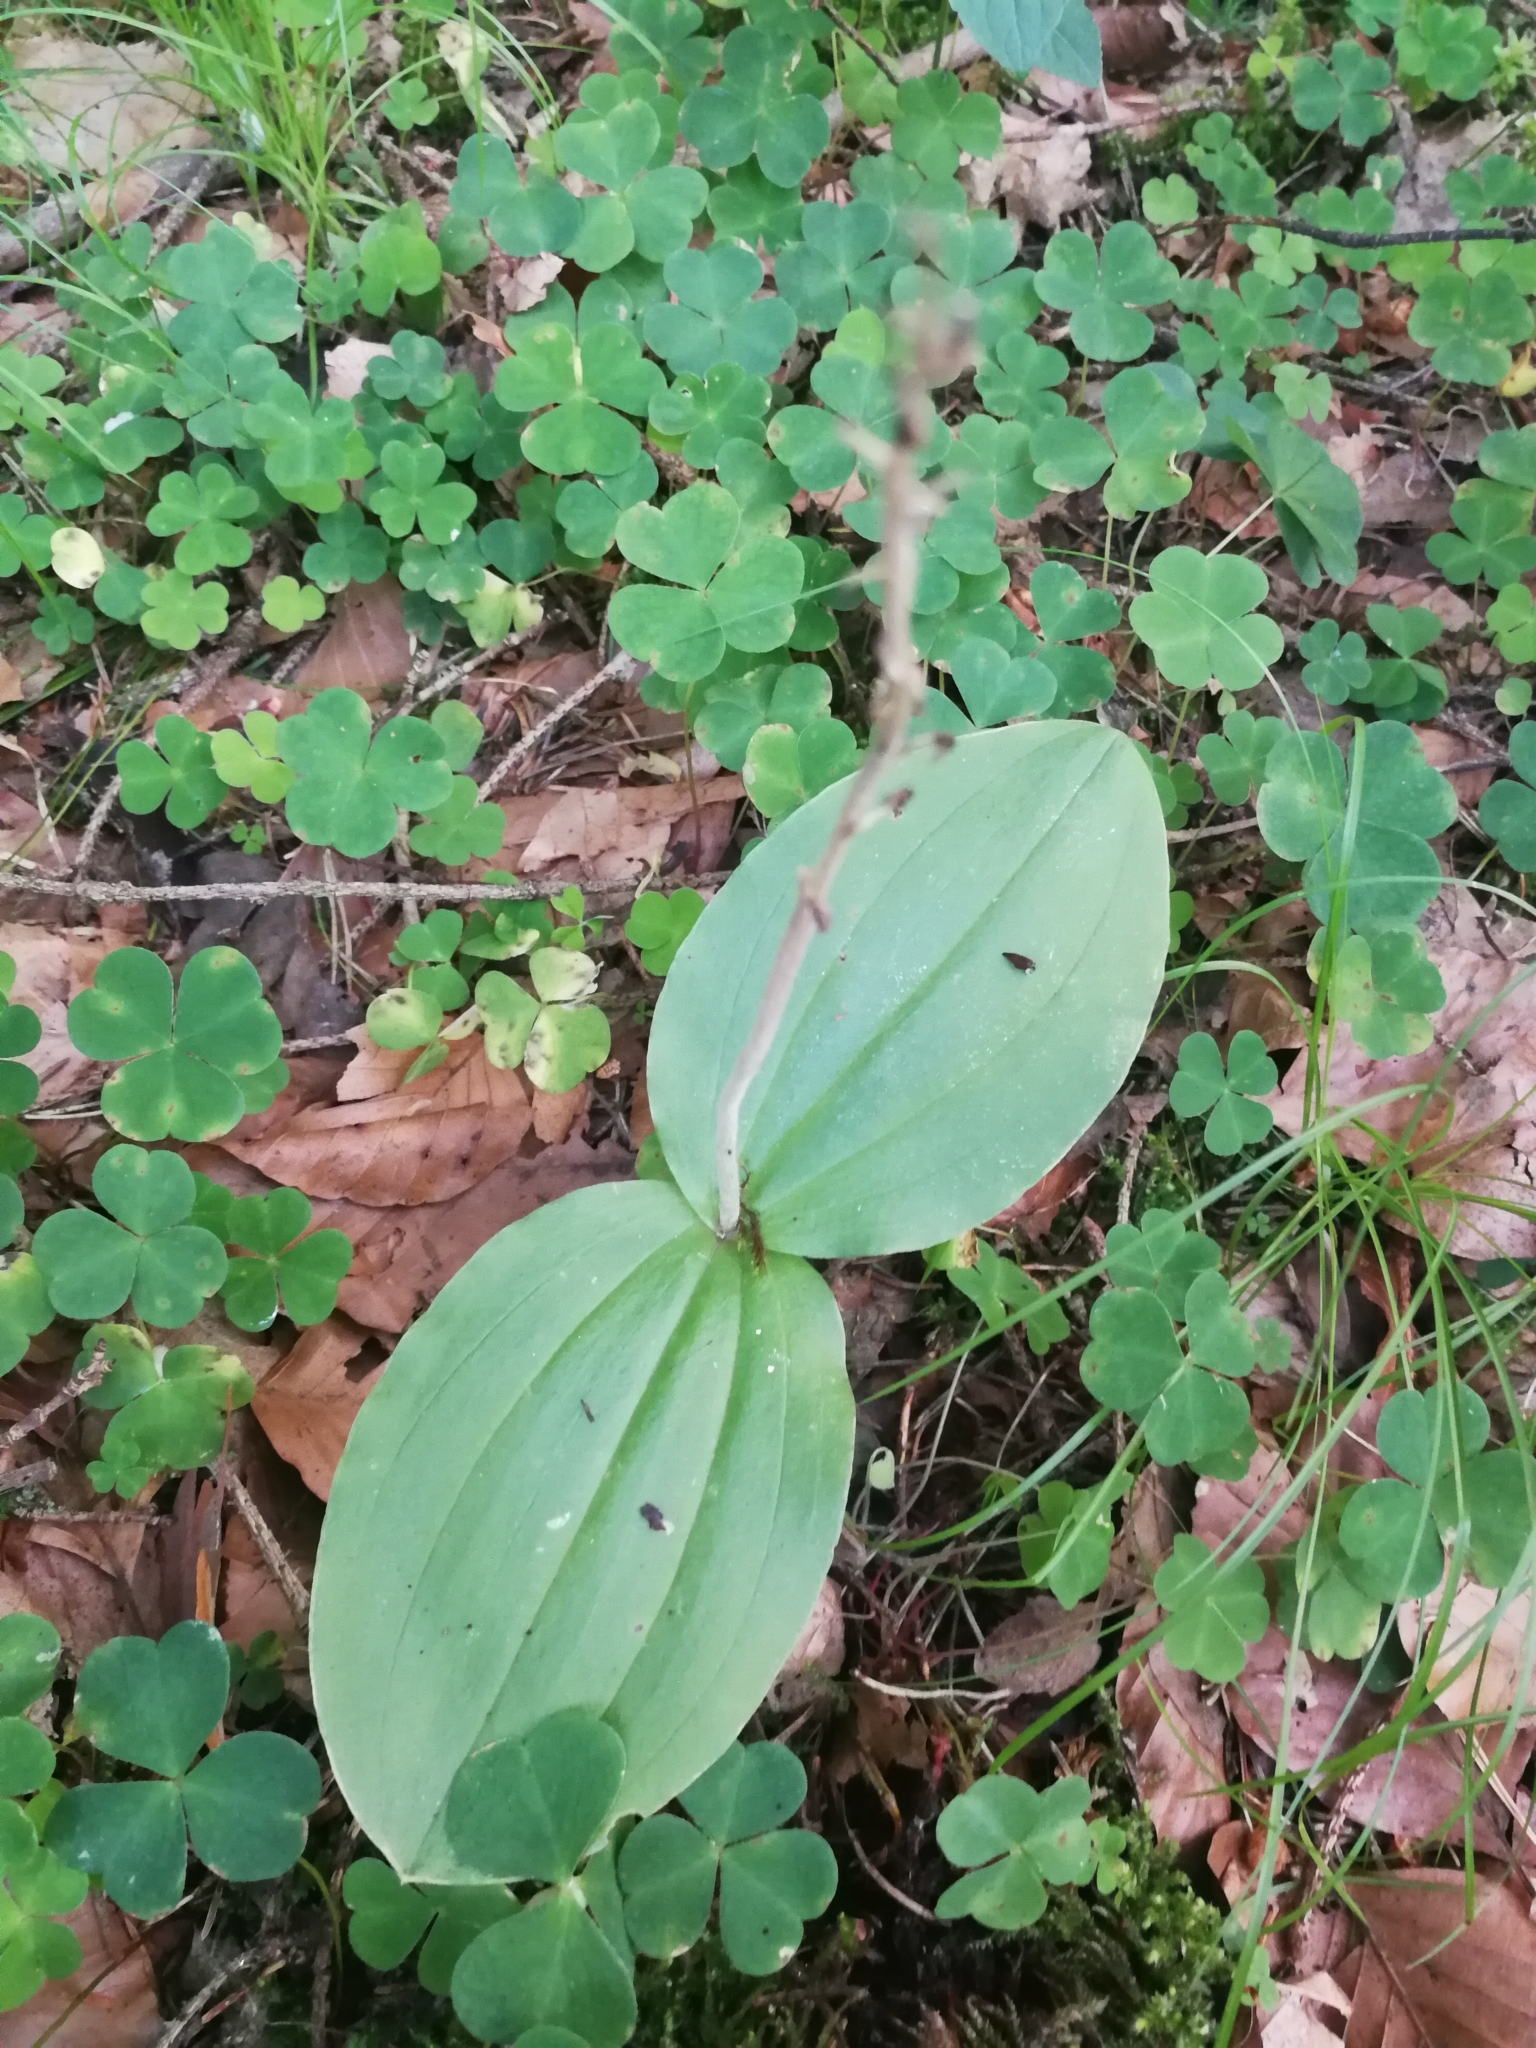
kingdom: Plantae
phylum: Tracheophyta
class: Liliopsida
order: Asparagales
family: Orchidaceae
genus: Neottia
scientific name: Neottia ovata
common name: Common twayblade
